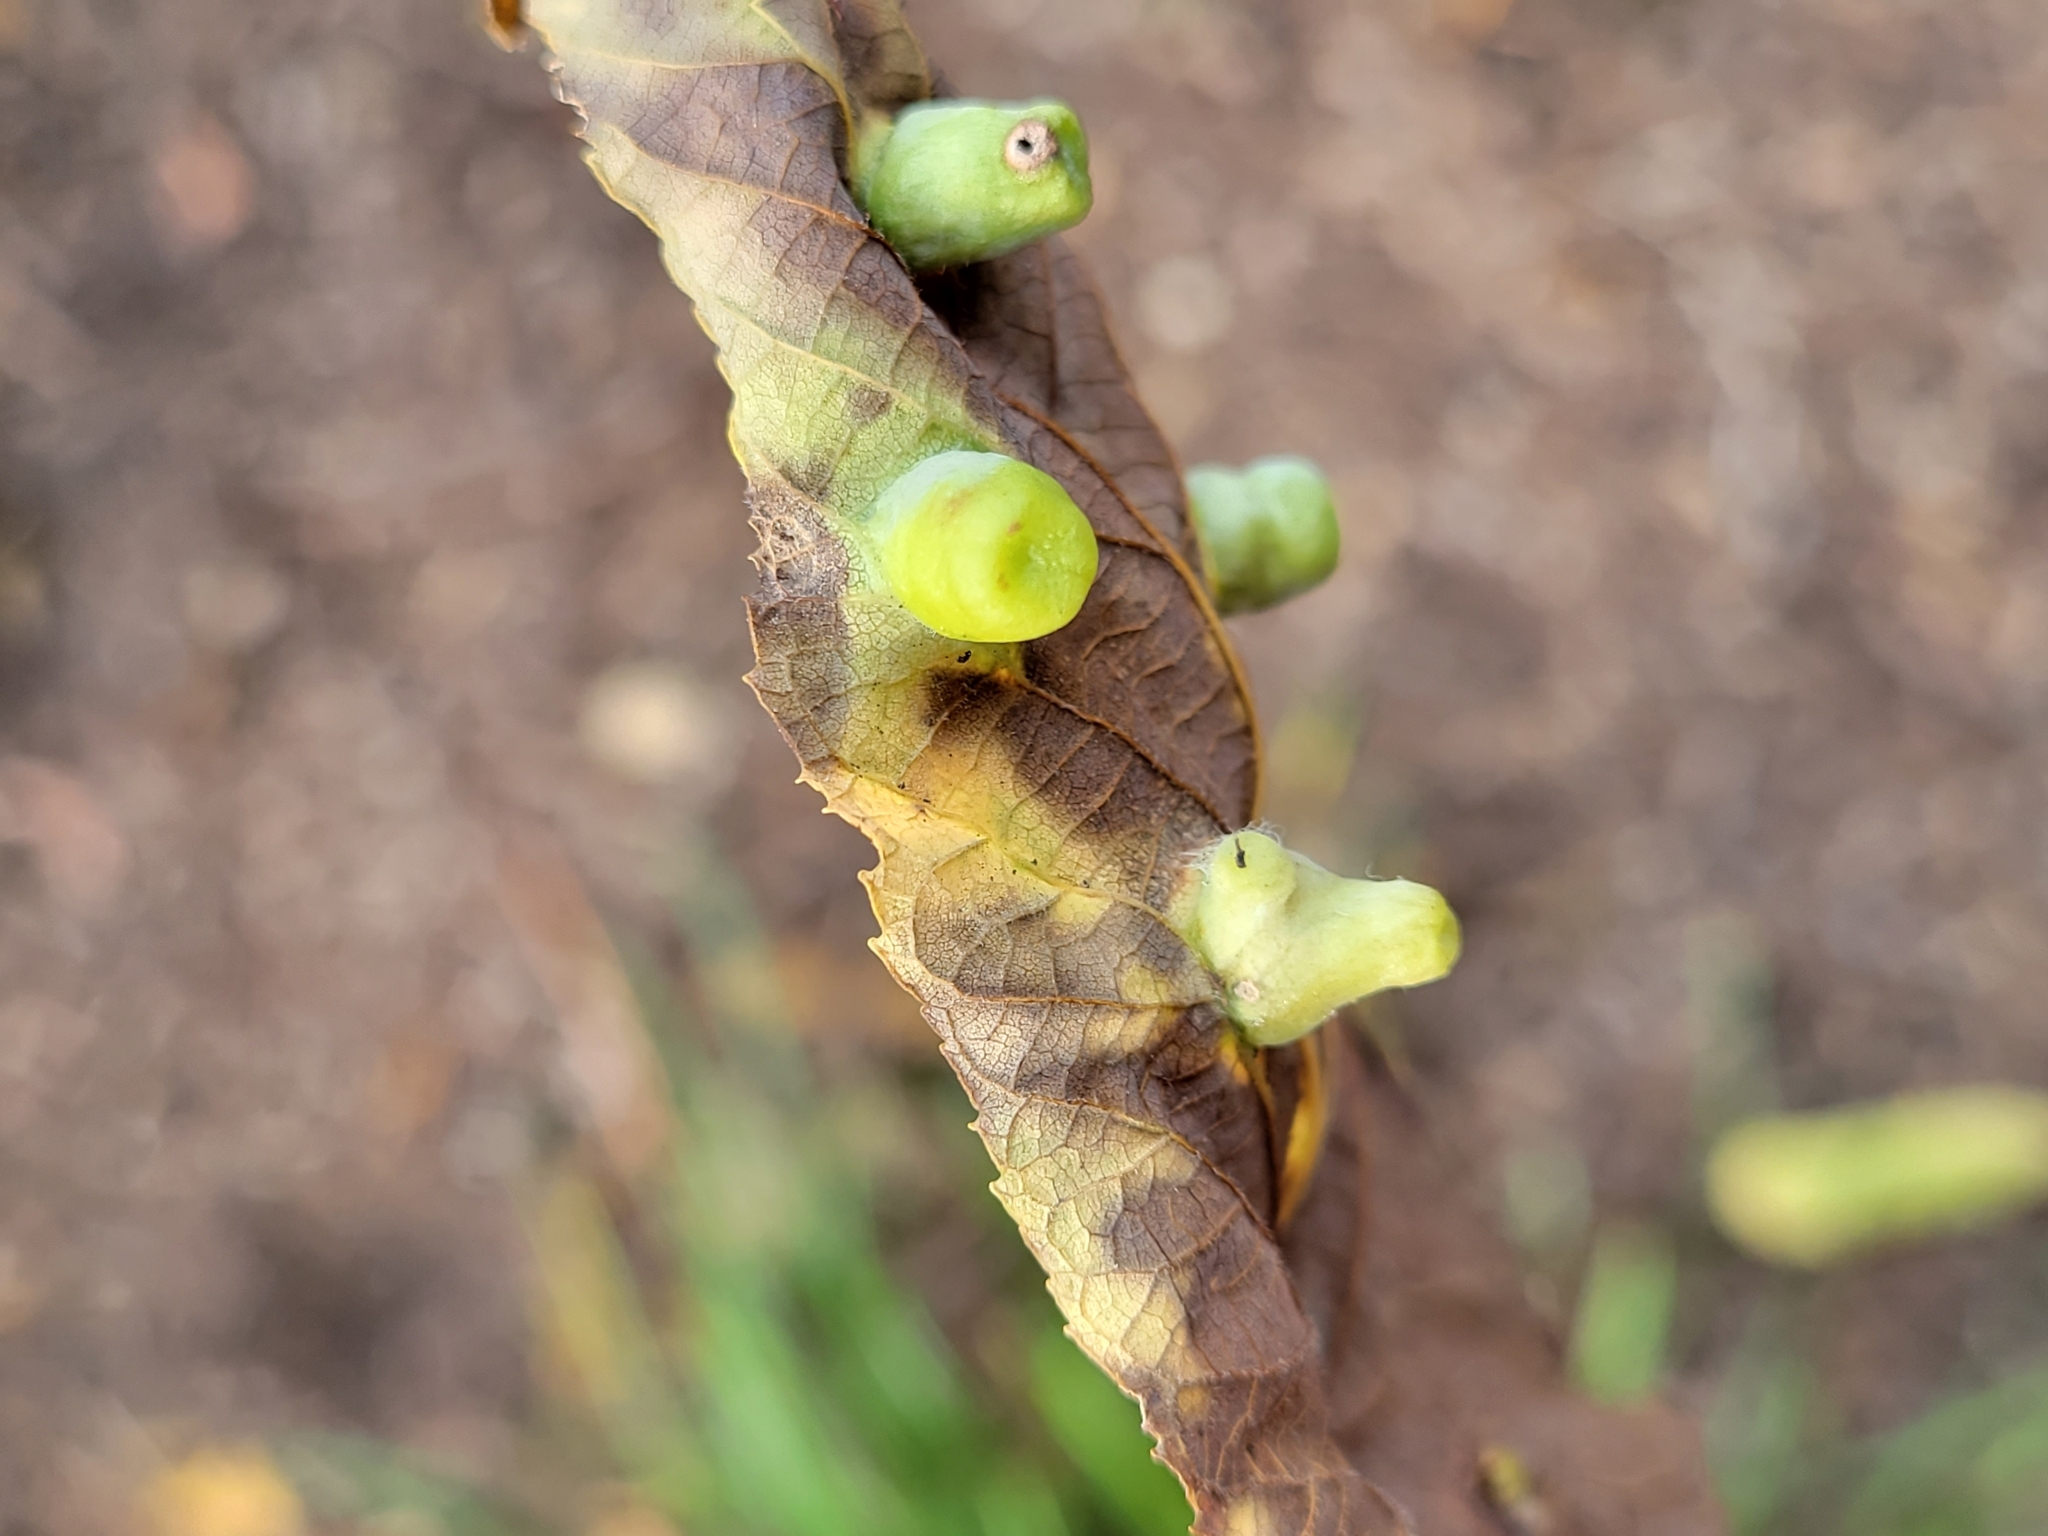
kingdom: Animalia
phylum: Arthropoda
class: Insecta
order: Hemiptera
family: Aphalaridae
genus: Pachypsylla
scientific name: Pachypsylla celtidismamma
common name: Hackberry nipplegall psyllid
